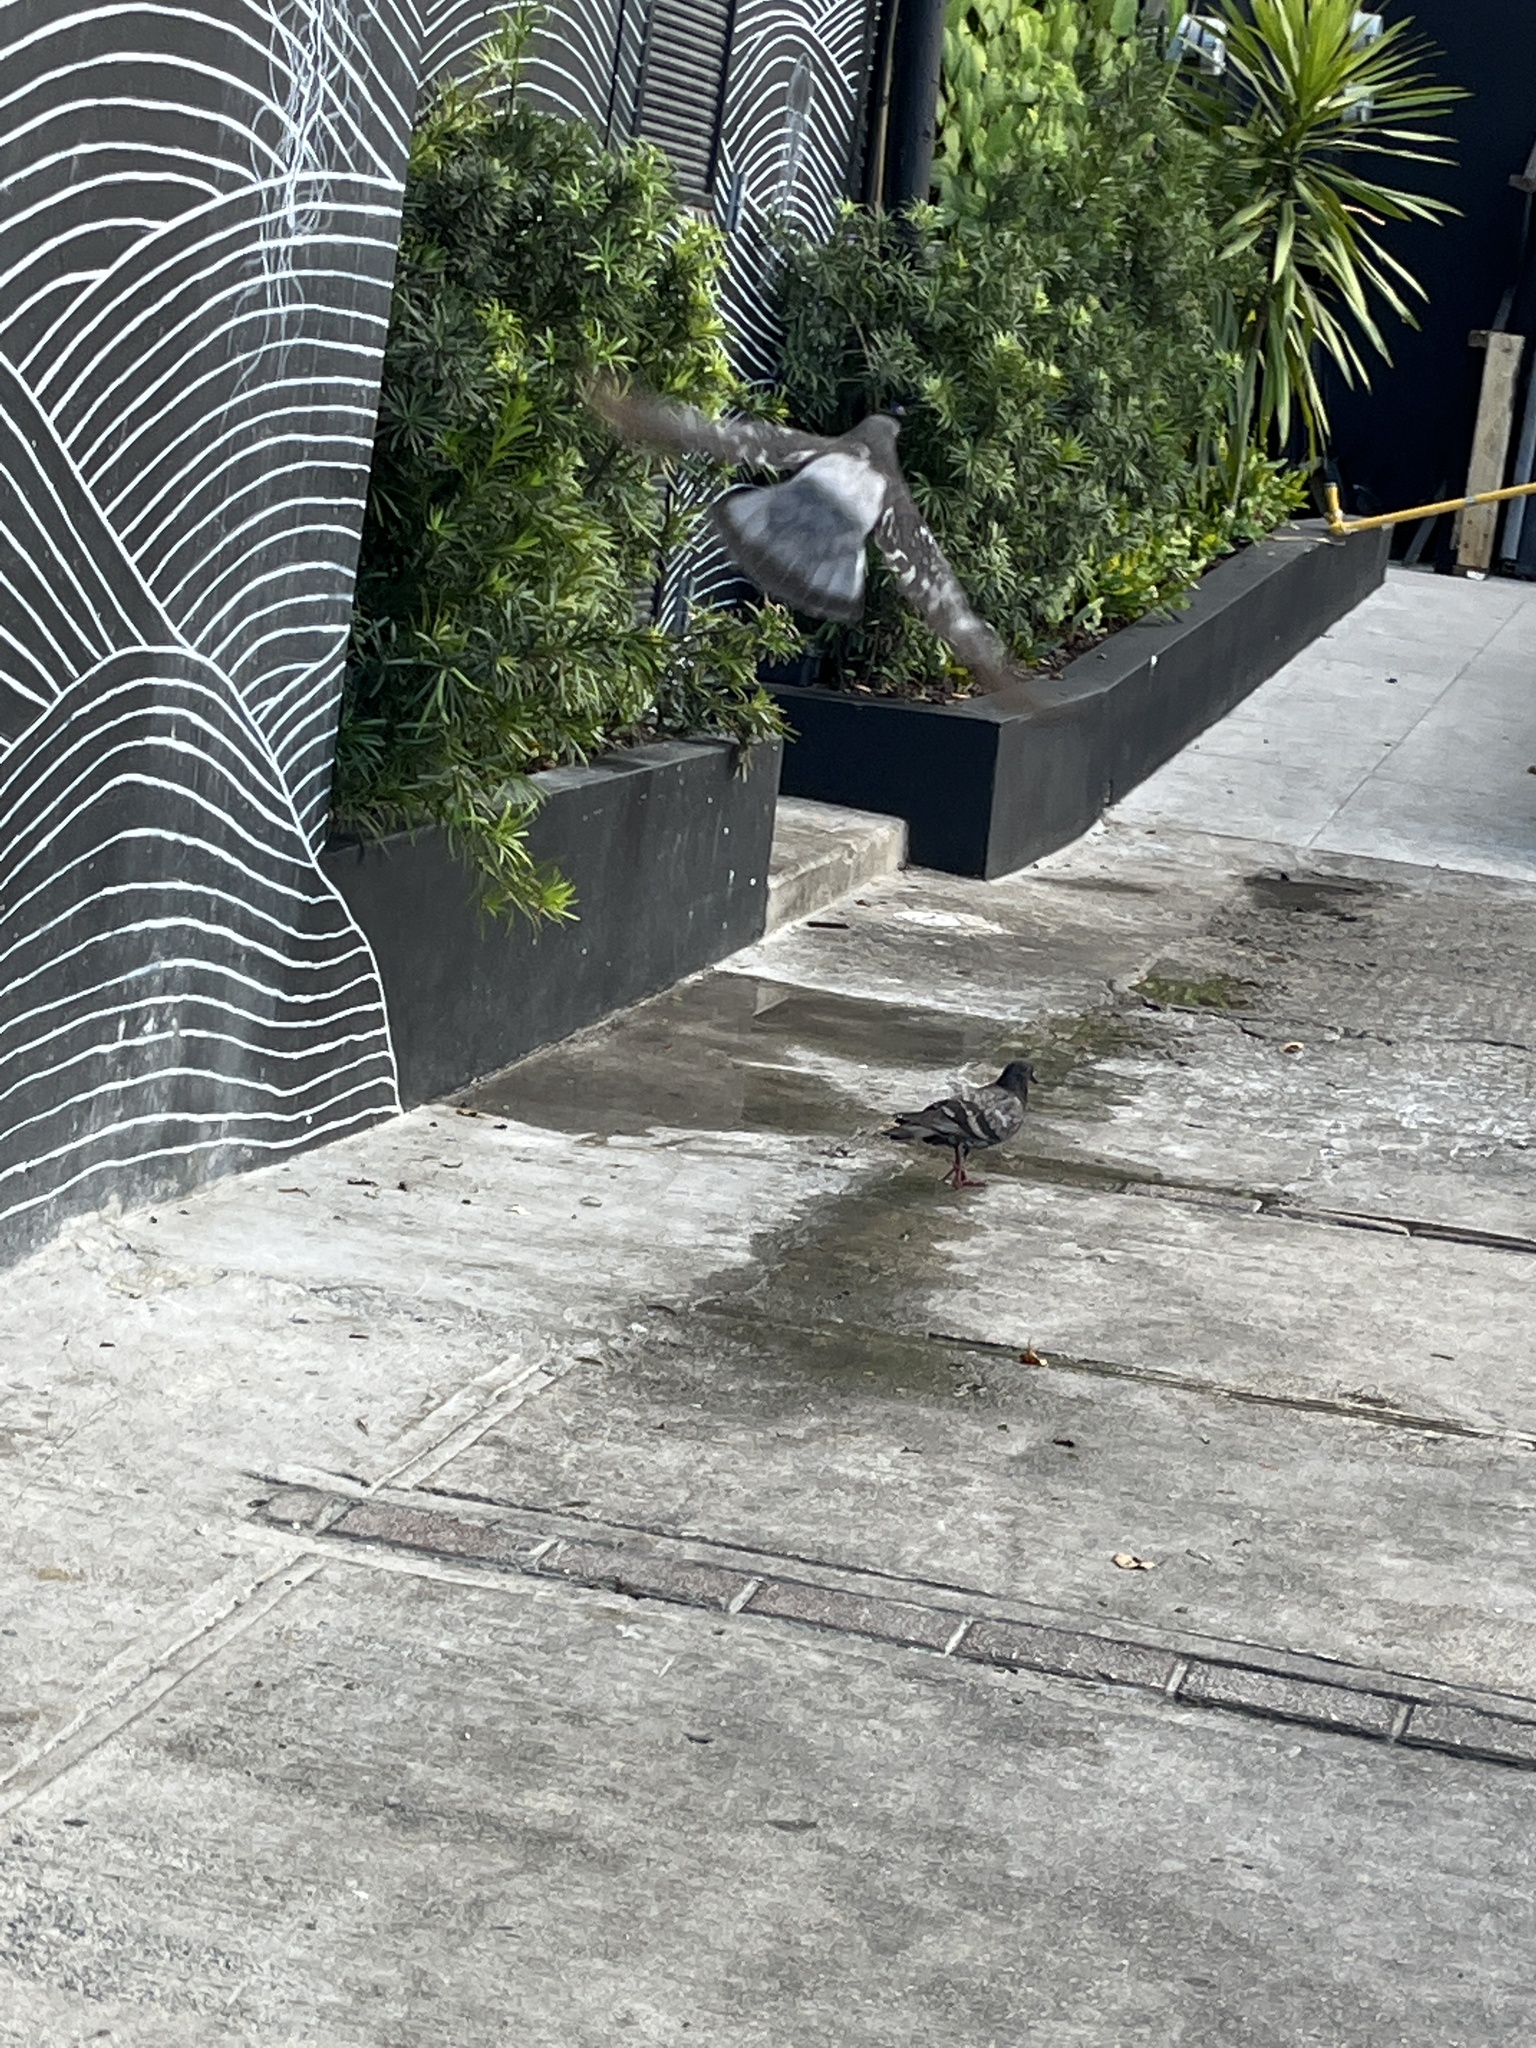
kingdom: Animalia
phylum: Chordata
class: Aves
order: Columbiformes
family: Columbidae
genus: Columba
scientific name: Columba livia
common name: Rock pigeon
